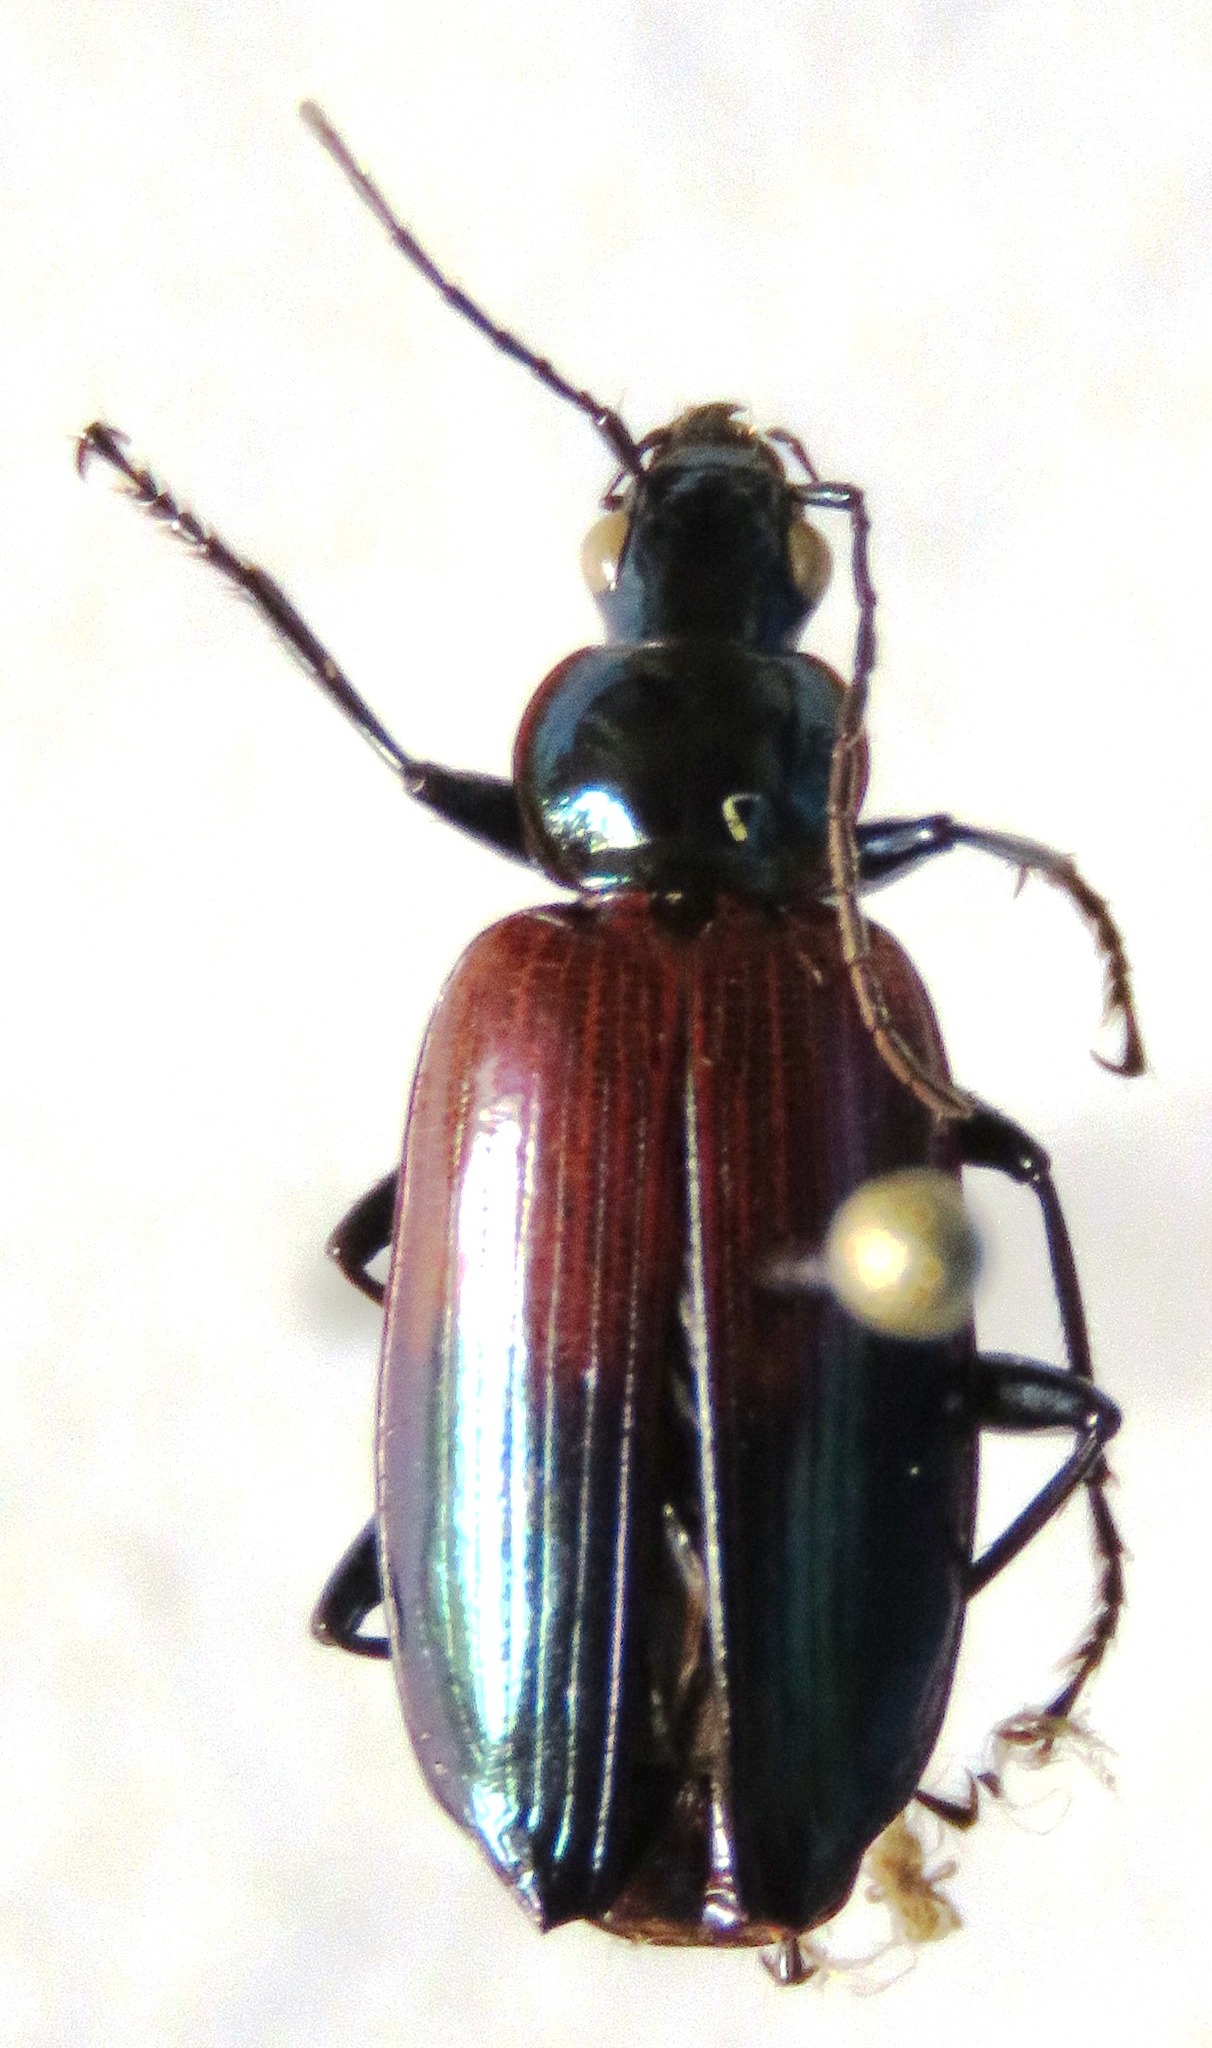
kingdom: Animalia
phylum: Arthropoda
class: Insecta
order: Coleoptera
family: Carabidae
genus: Onypterygia
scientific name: Onypterygia tricolor
